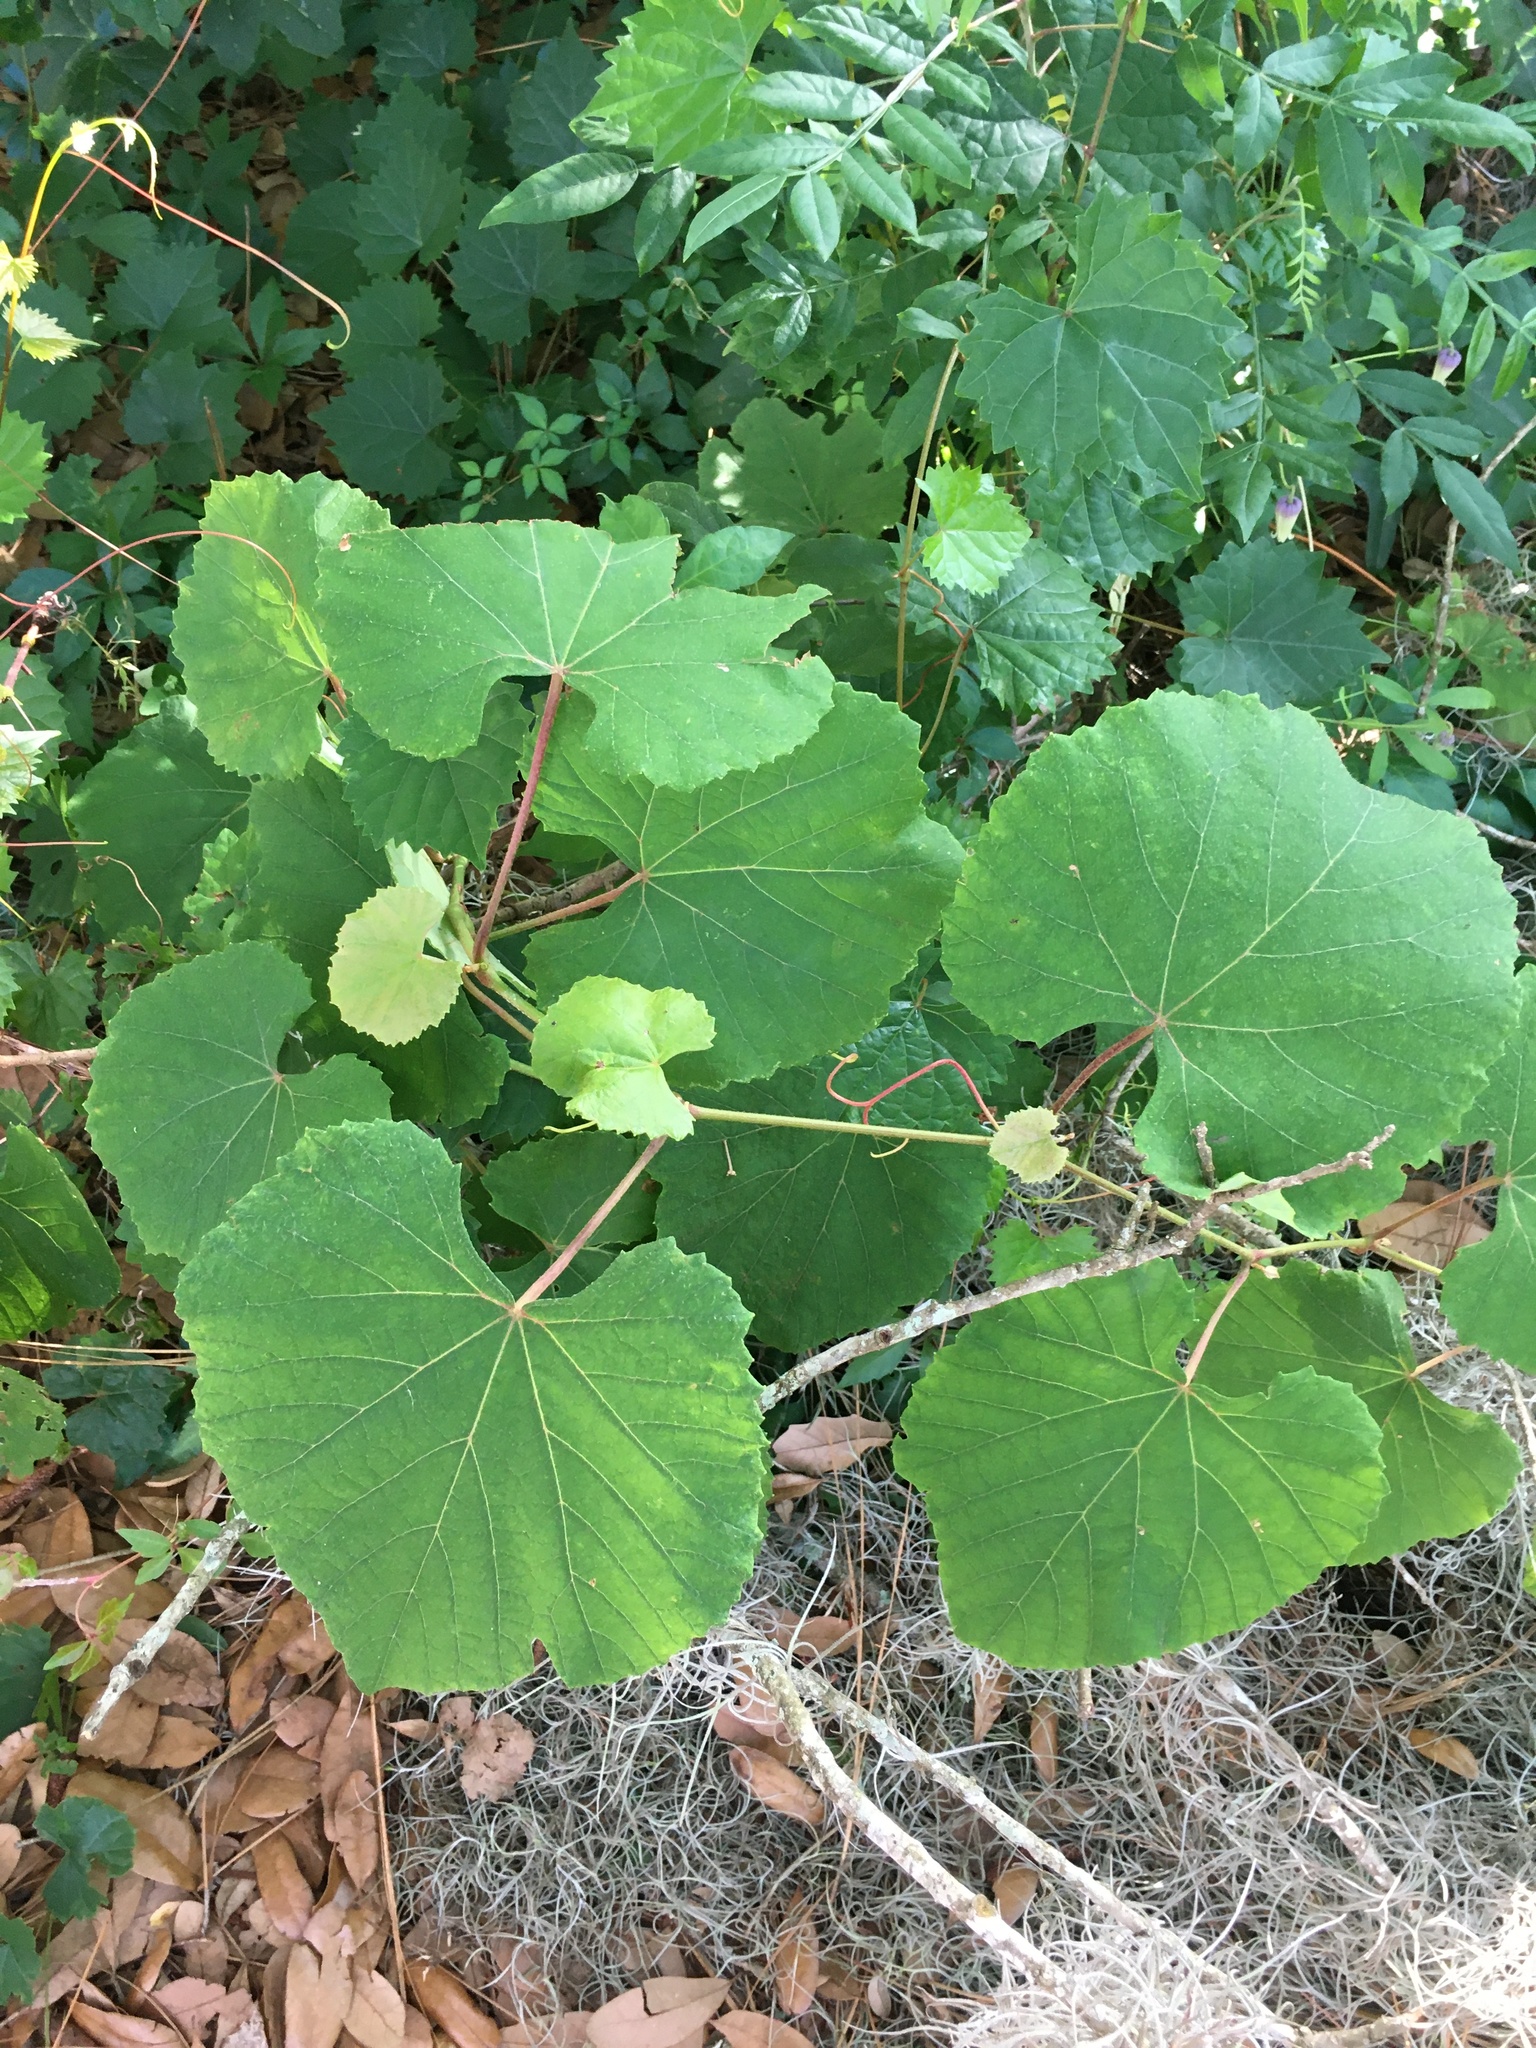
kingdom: Plantae
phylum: Tracheophyta
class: Magnoliopsida
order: Vitales
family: Vitaceae
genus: Vitis
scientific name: Vitis cinerea
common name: Ashy grape
